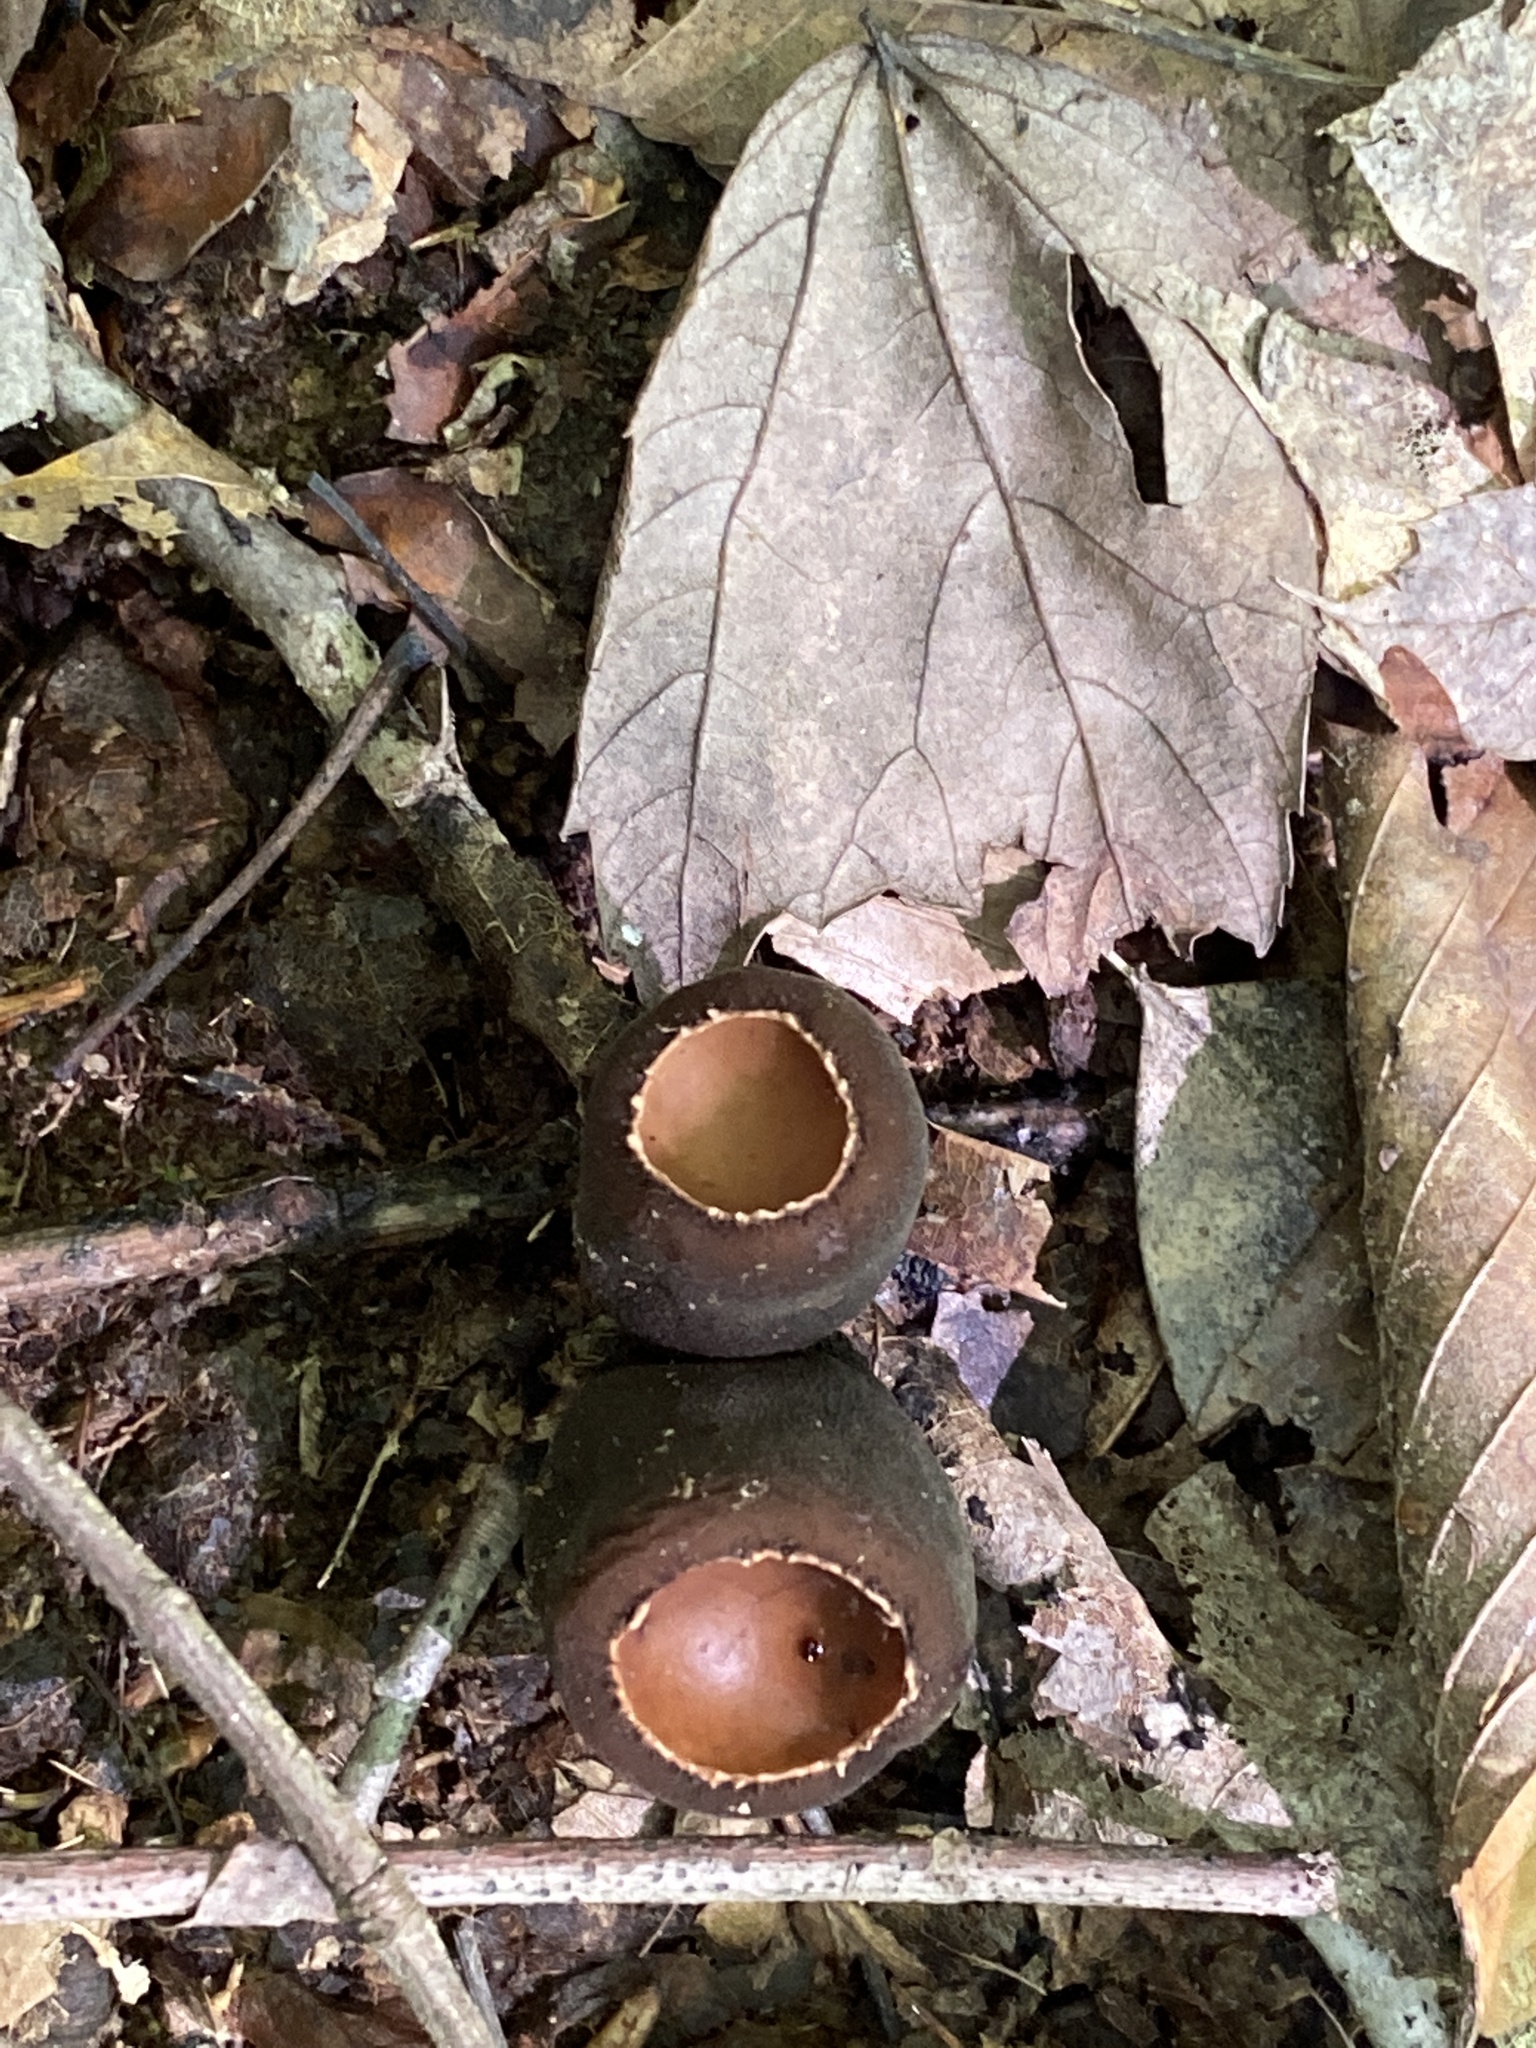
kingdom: Fungi
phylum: Ascomycota
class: Pezizomycetes
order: Pezizales
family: Sarcosomataceae
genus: Galiella
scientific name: Galiella rufa
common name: Hairy rubber cup
